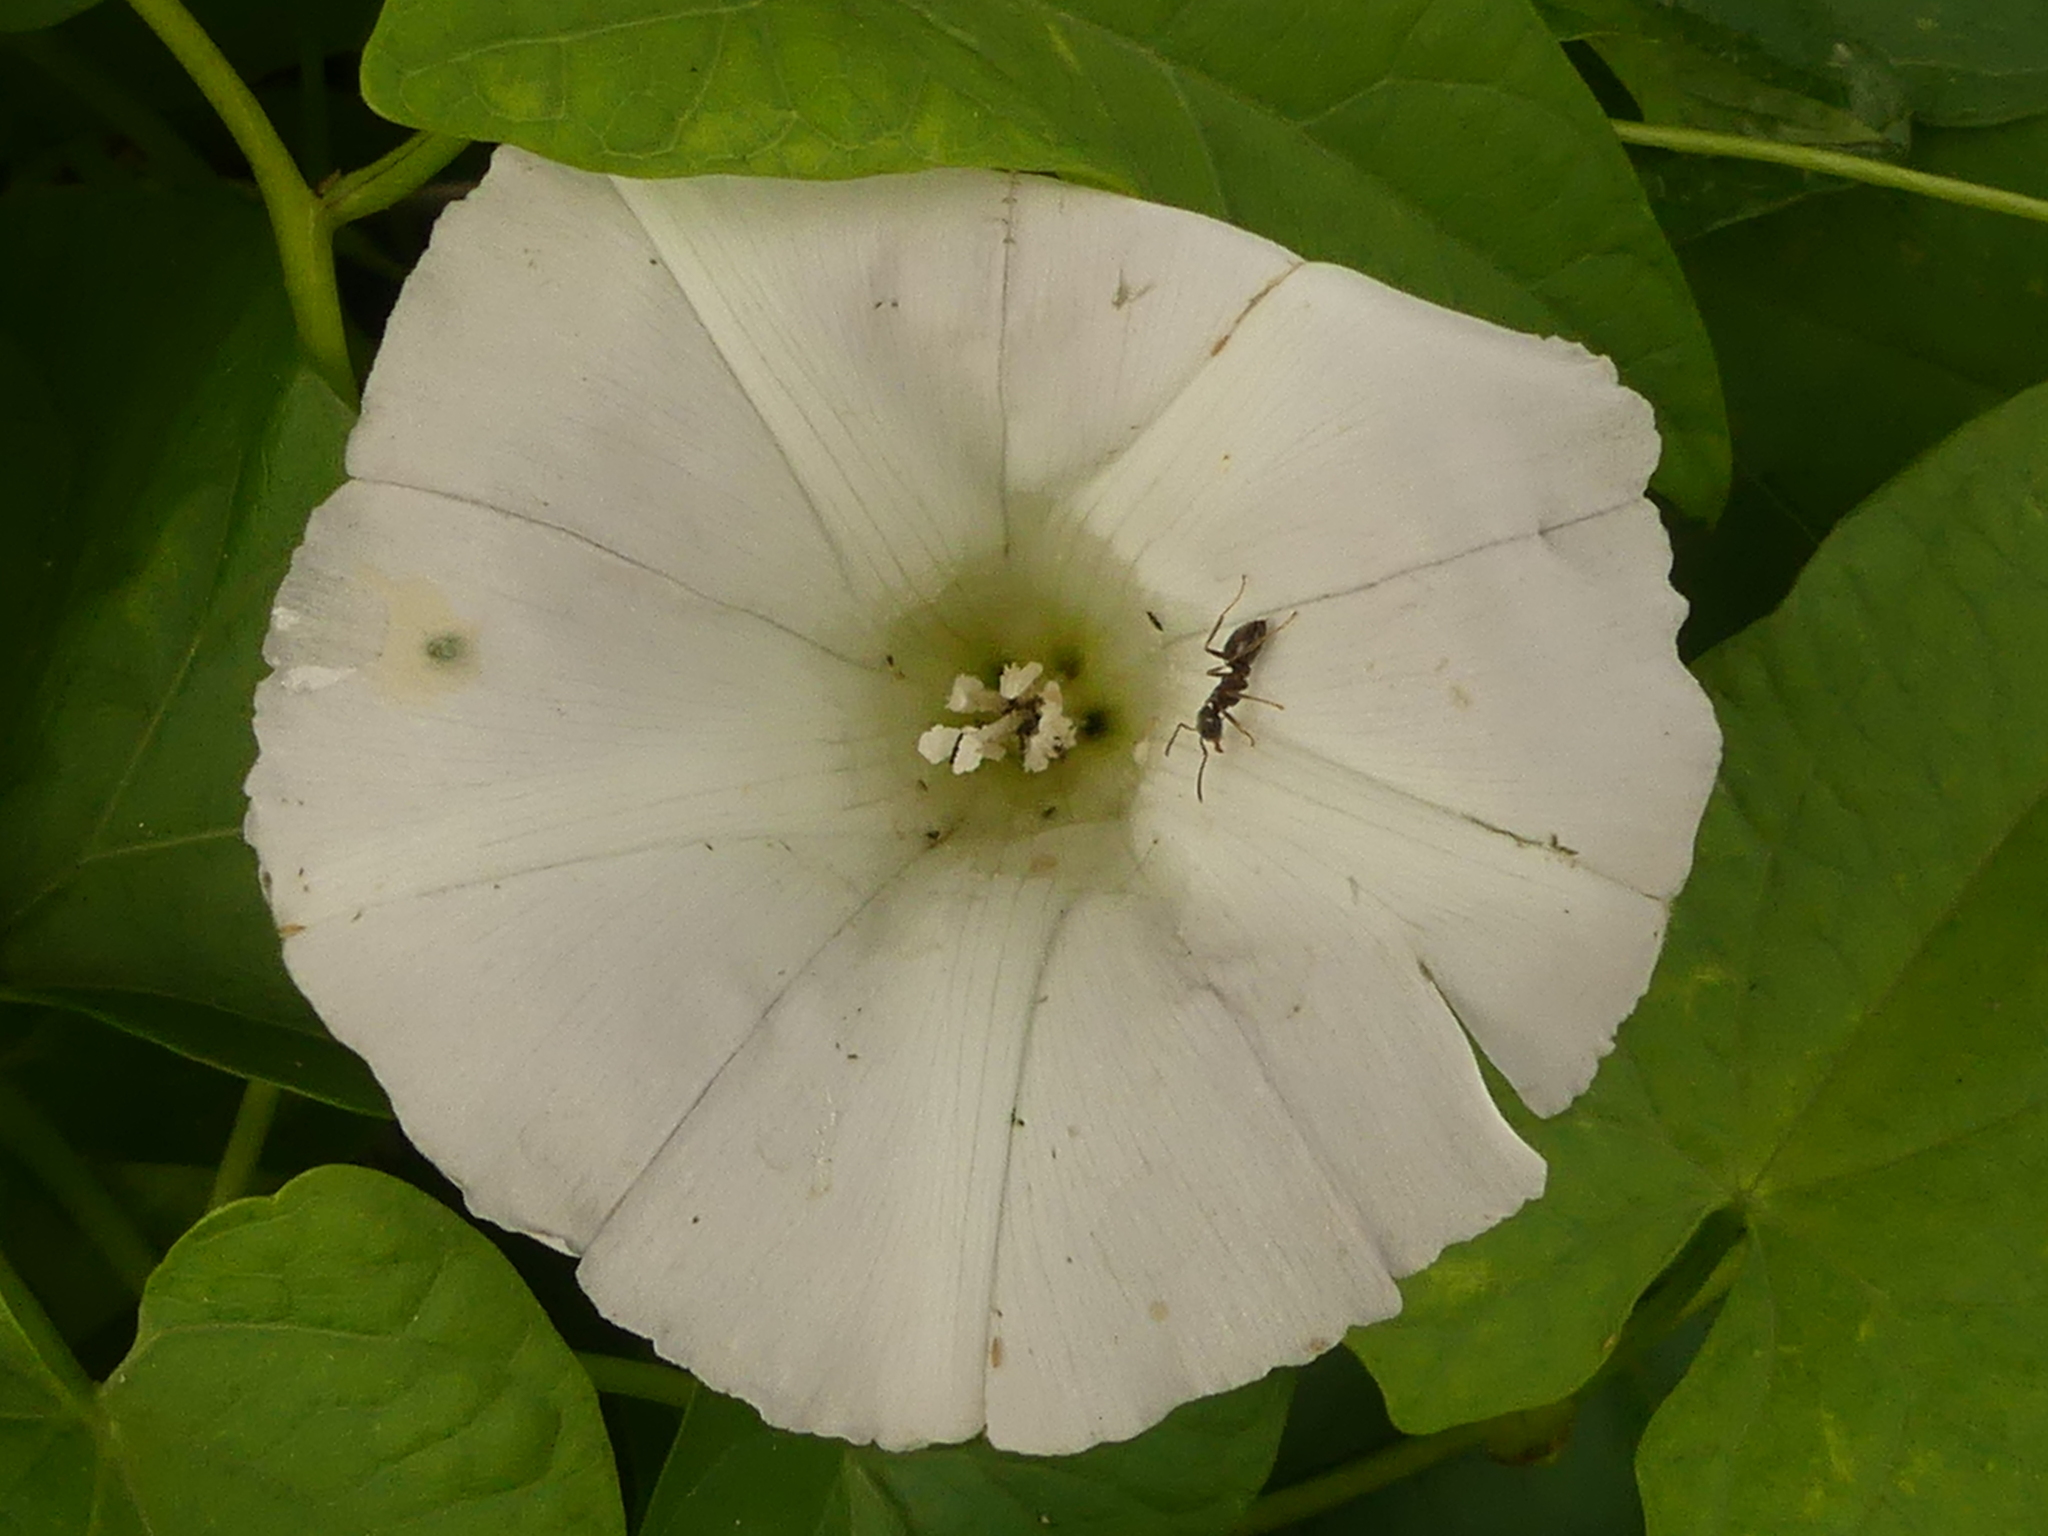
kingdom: Plantae
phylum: Tracheophyta
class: Magnoliopsida
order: Solanales
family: Convolvulaceae
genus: Calystegia
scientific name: Calystegia sepium
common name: Hedge bindweed
